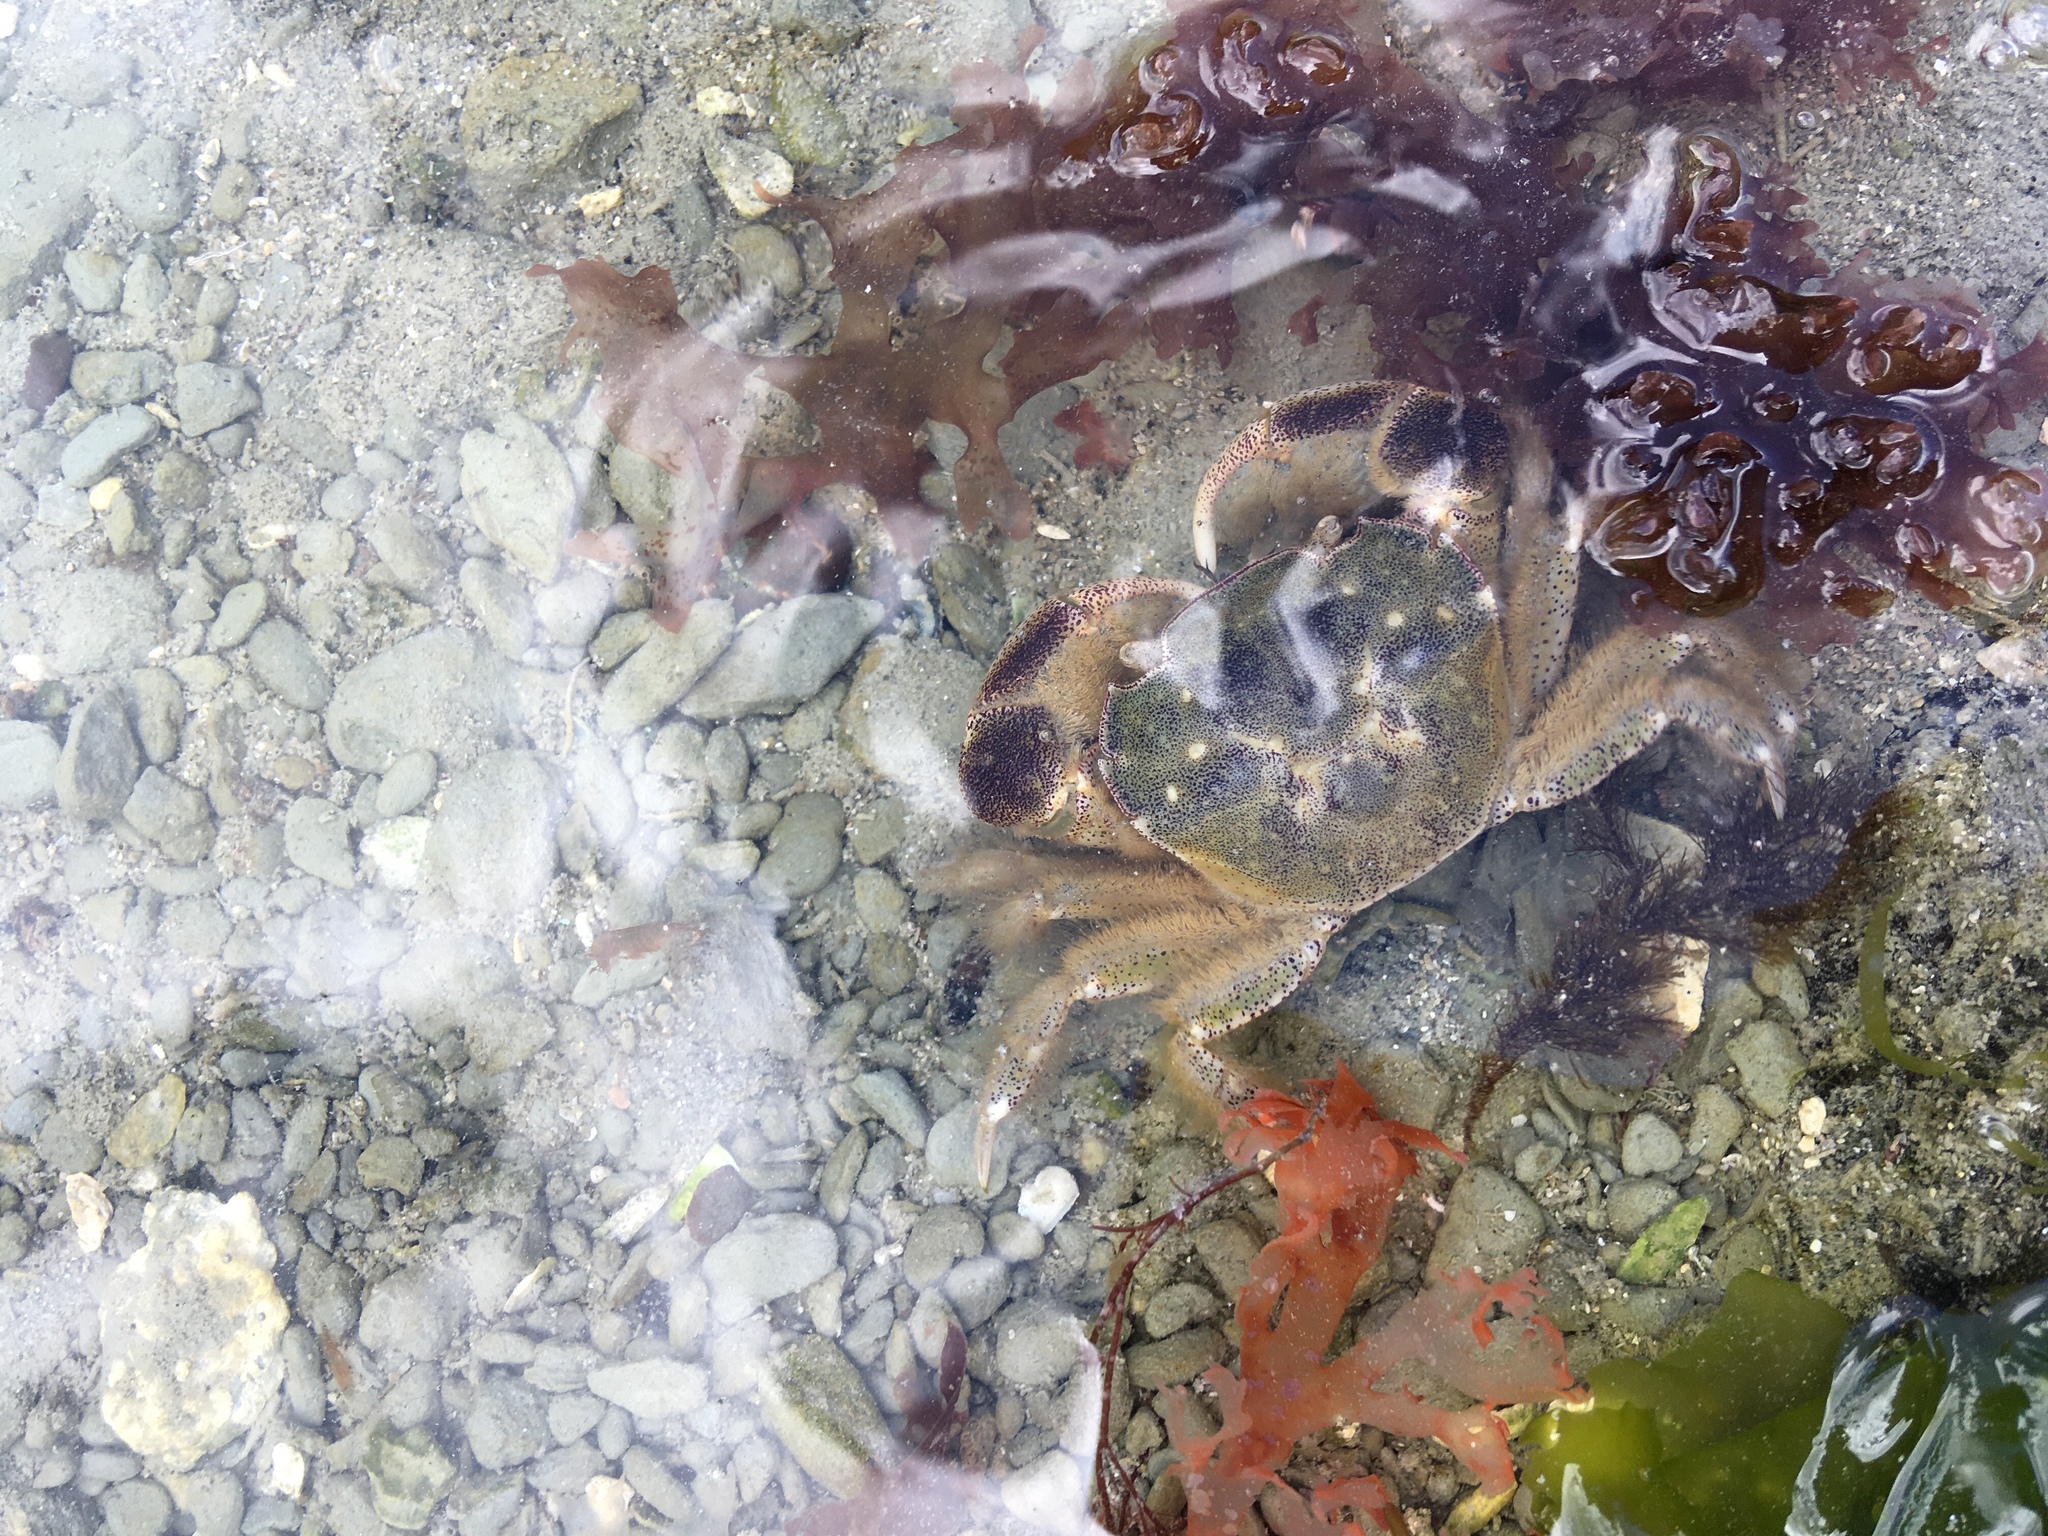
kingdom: Animalia
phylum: Arthropoda
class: Malacostraca
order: Decapoda
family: Varunidae
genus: Hemigrapsus
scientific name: Hemigrapsus crenulatus
